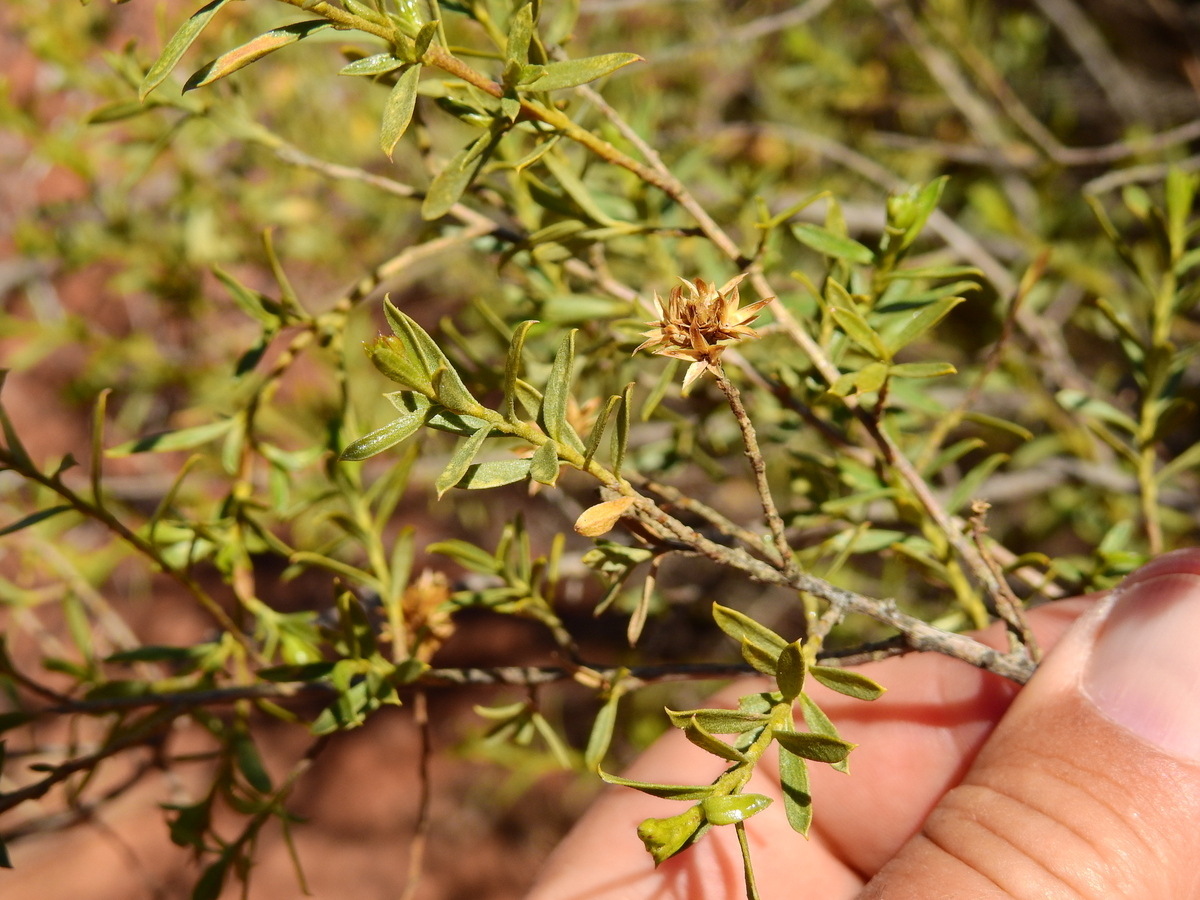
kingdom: Plantae
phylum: Tracheophyta
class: Magnoliopsida
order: Asterales
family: Asteraceae
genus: Gochnatia
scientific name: Gochnatia glutinosa
